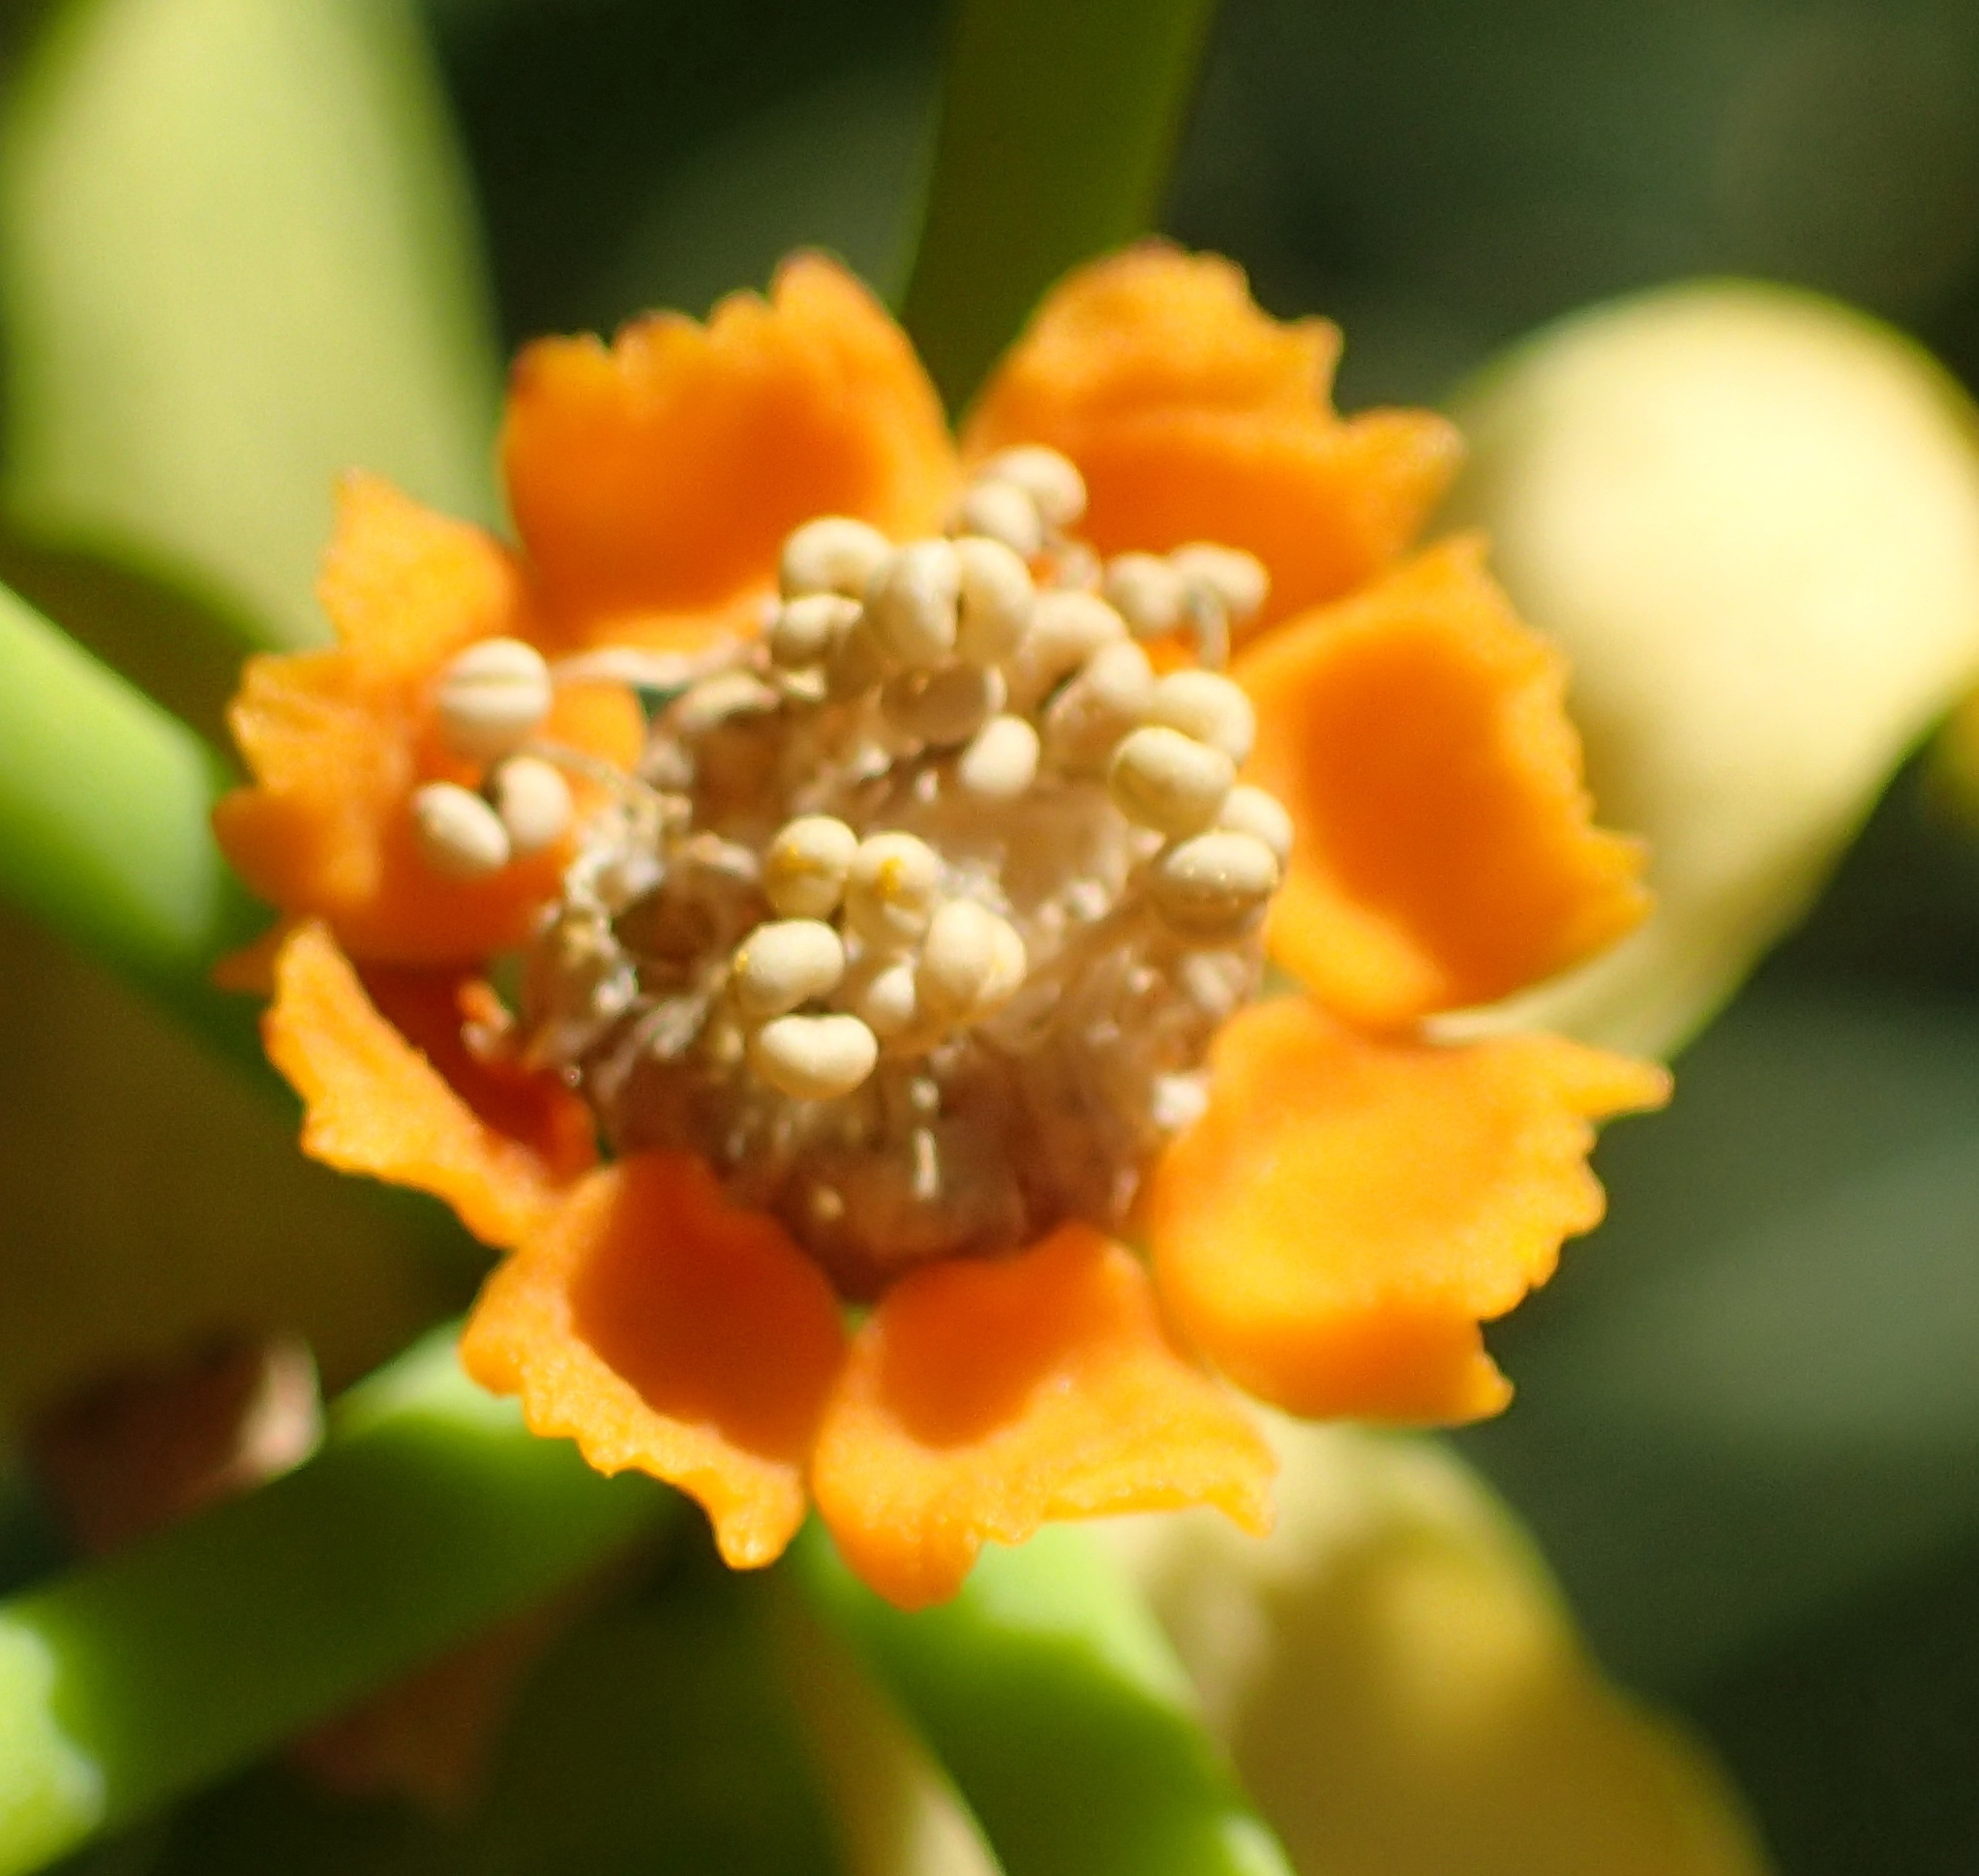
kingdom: Plantae
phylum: Tracheophyta
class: Magnoliopsida
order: Malpighiales
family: Euphorbiaceae
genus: Euphorbia
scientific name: Euphorbia mauritanica
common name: Jackal's-food
